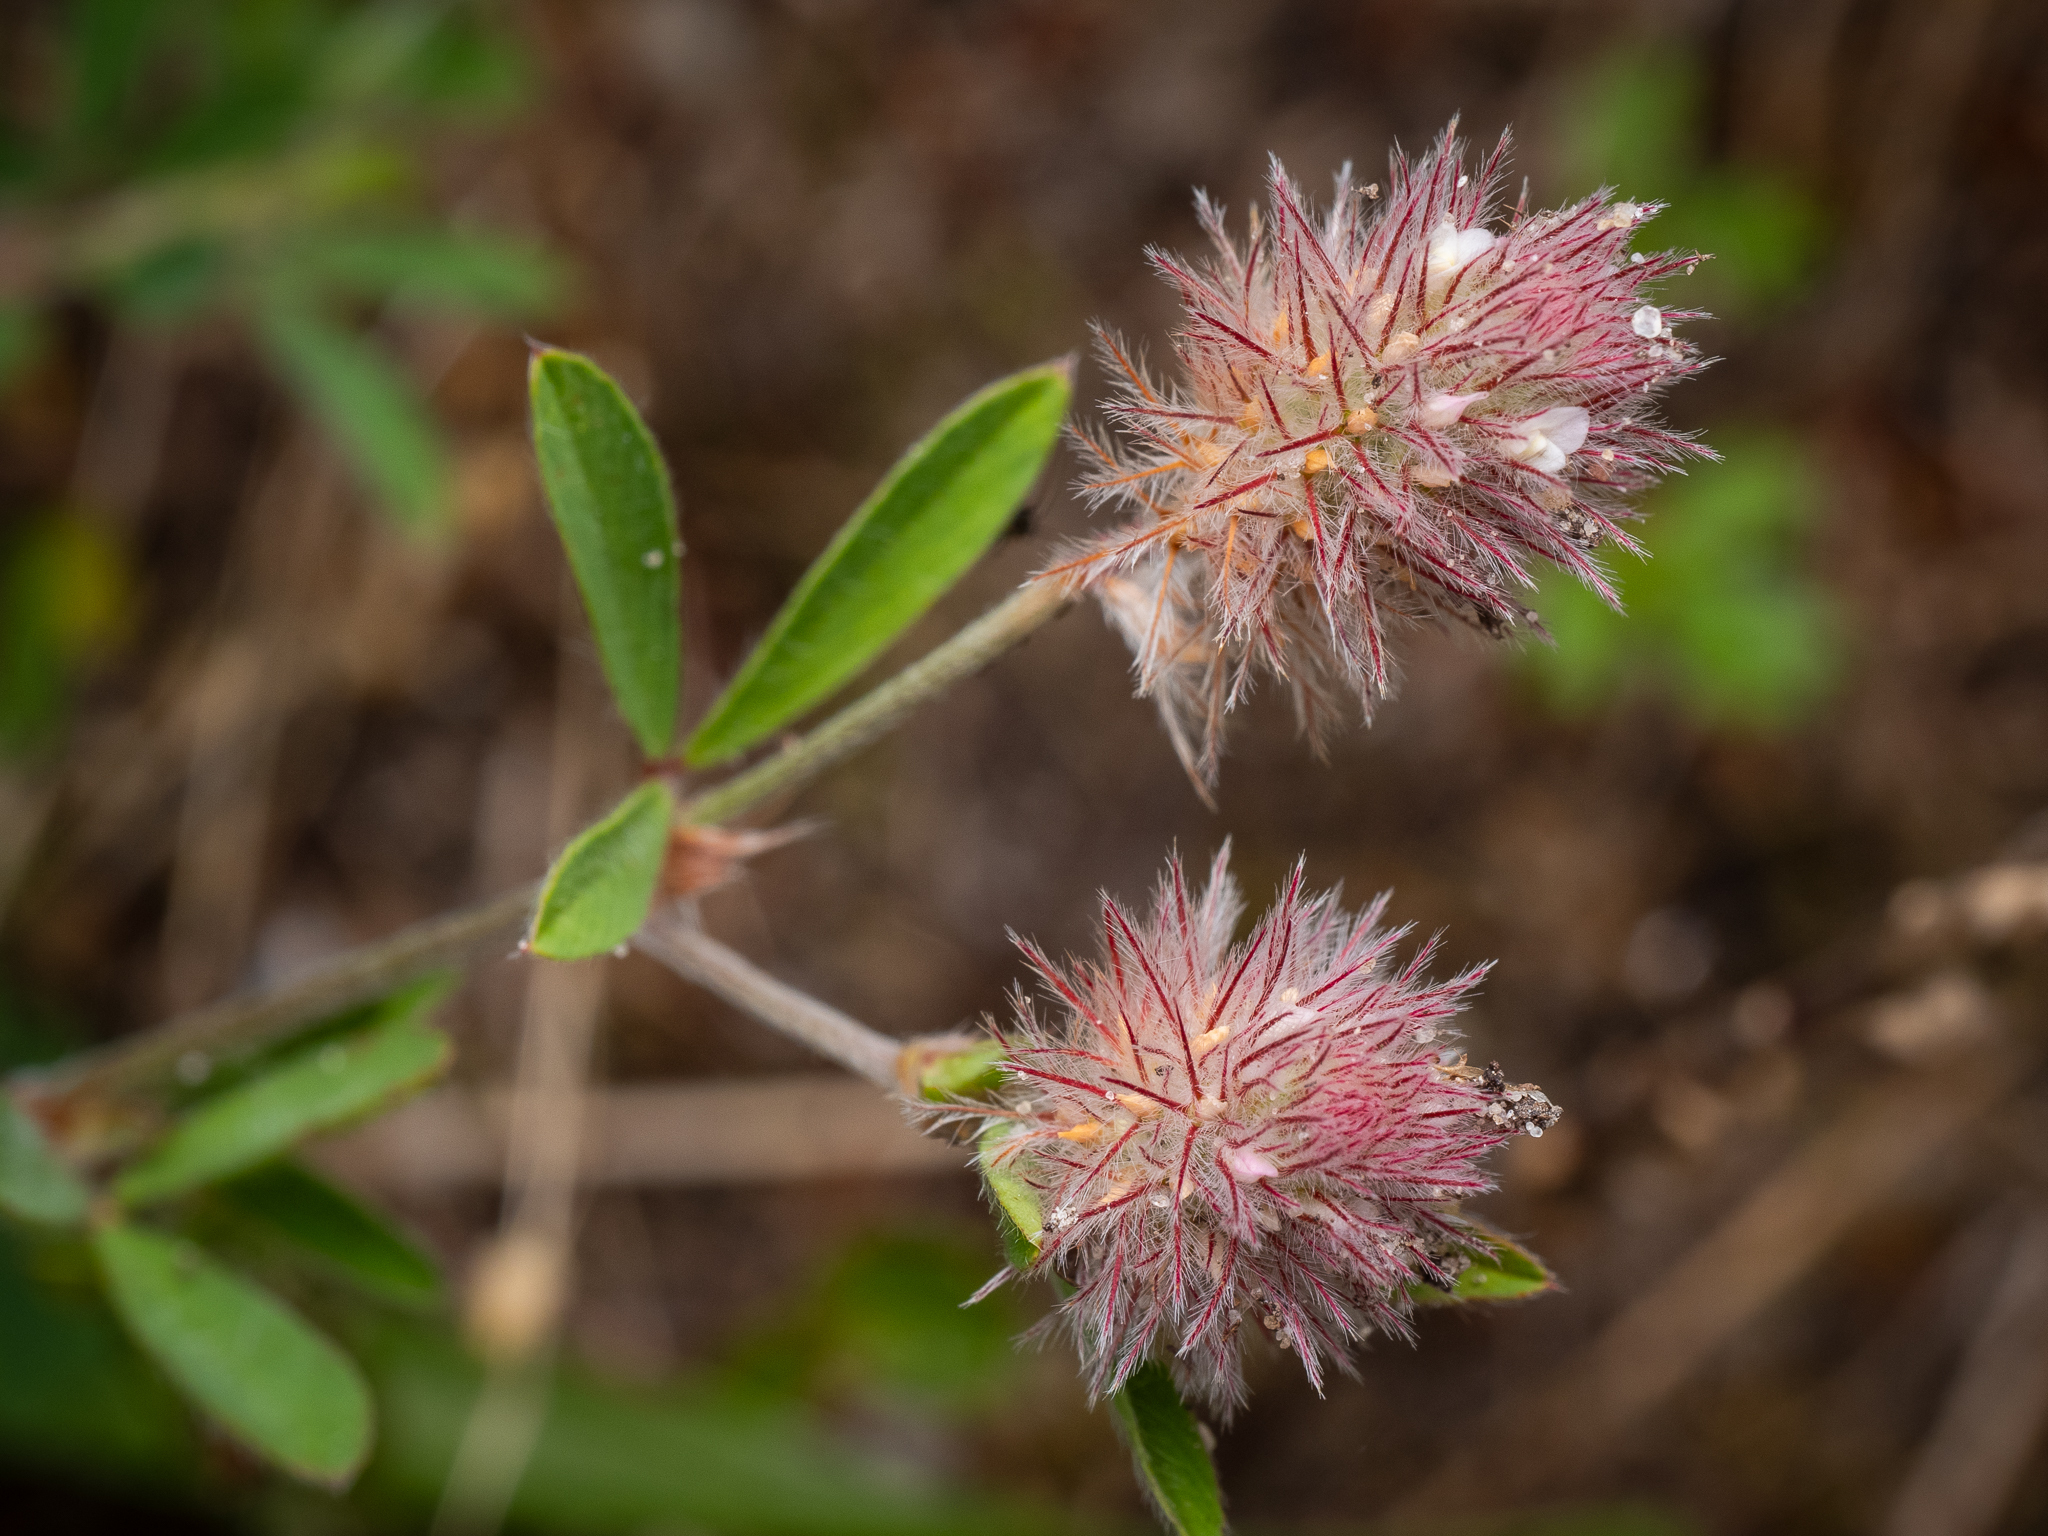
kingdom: Plantae
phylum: Tracheophyta
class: Magnoliopsida
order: Fabales
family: Fabaceae
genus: Trifolium
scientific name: Trifolium arvense
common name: Hare's-foot clover
